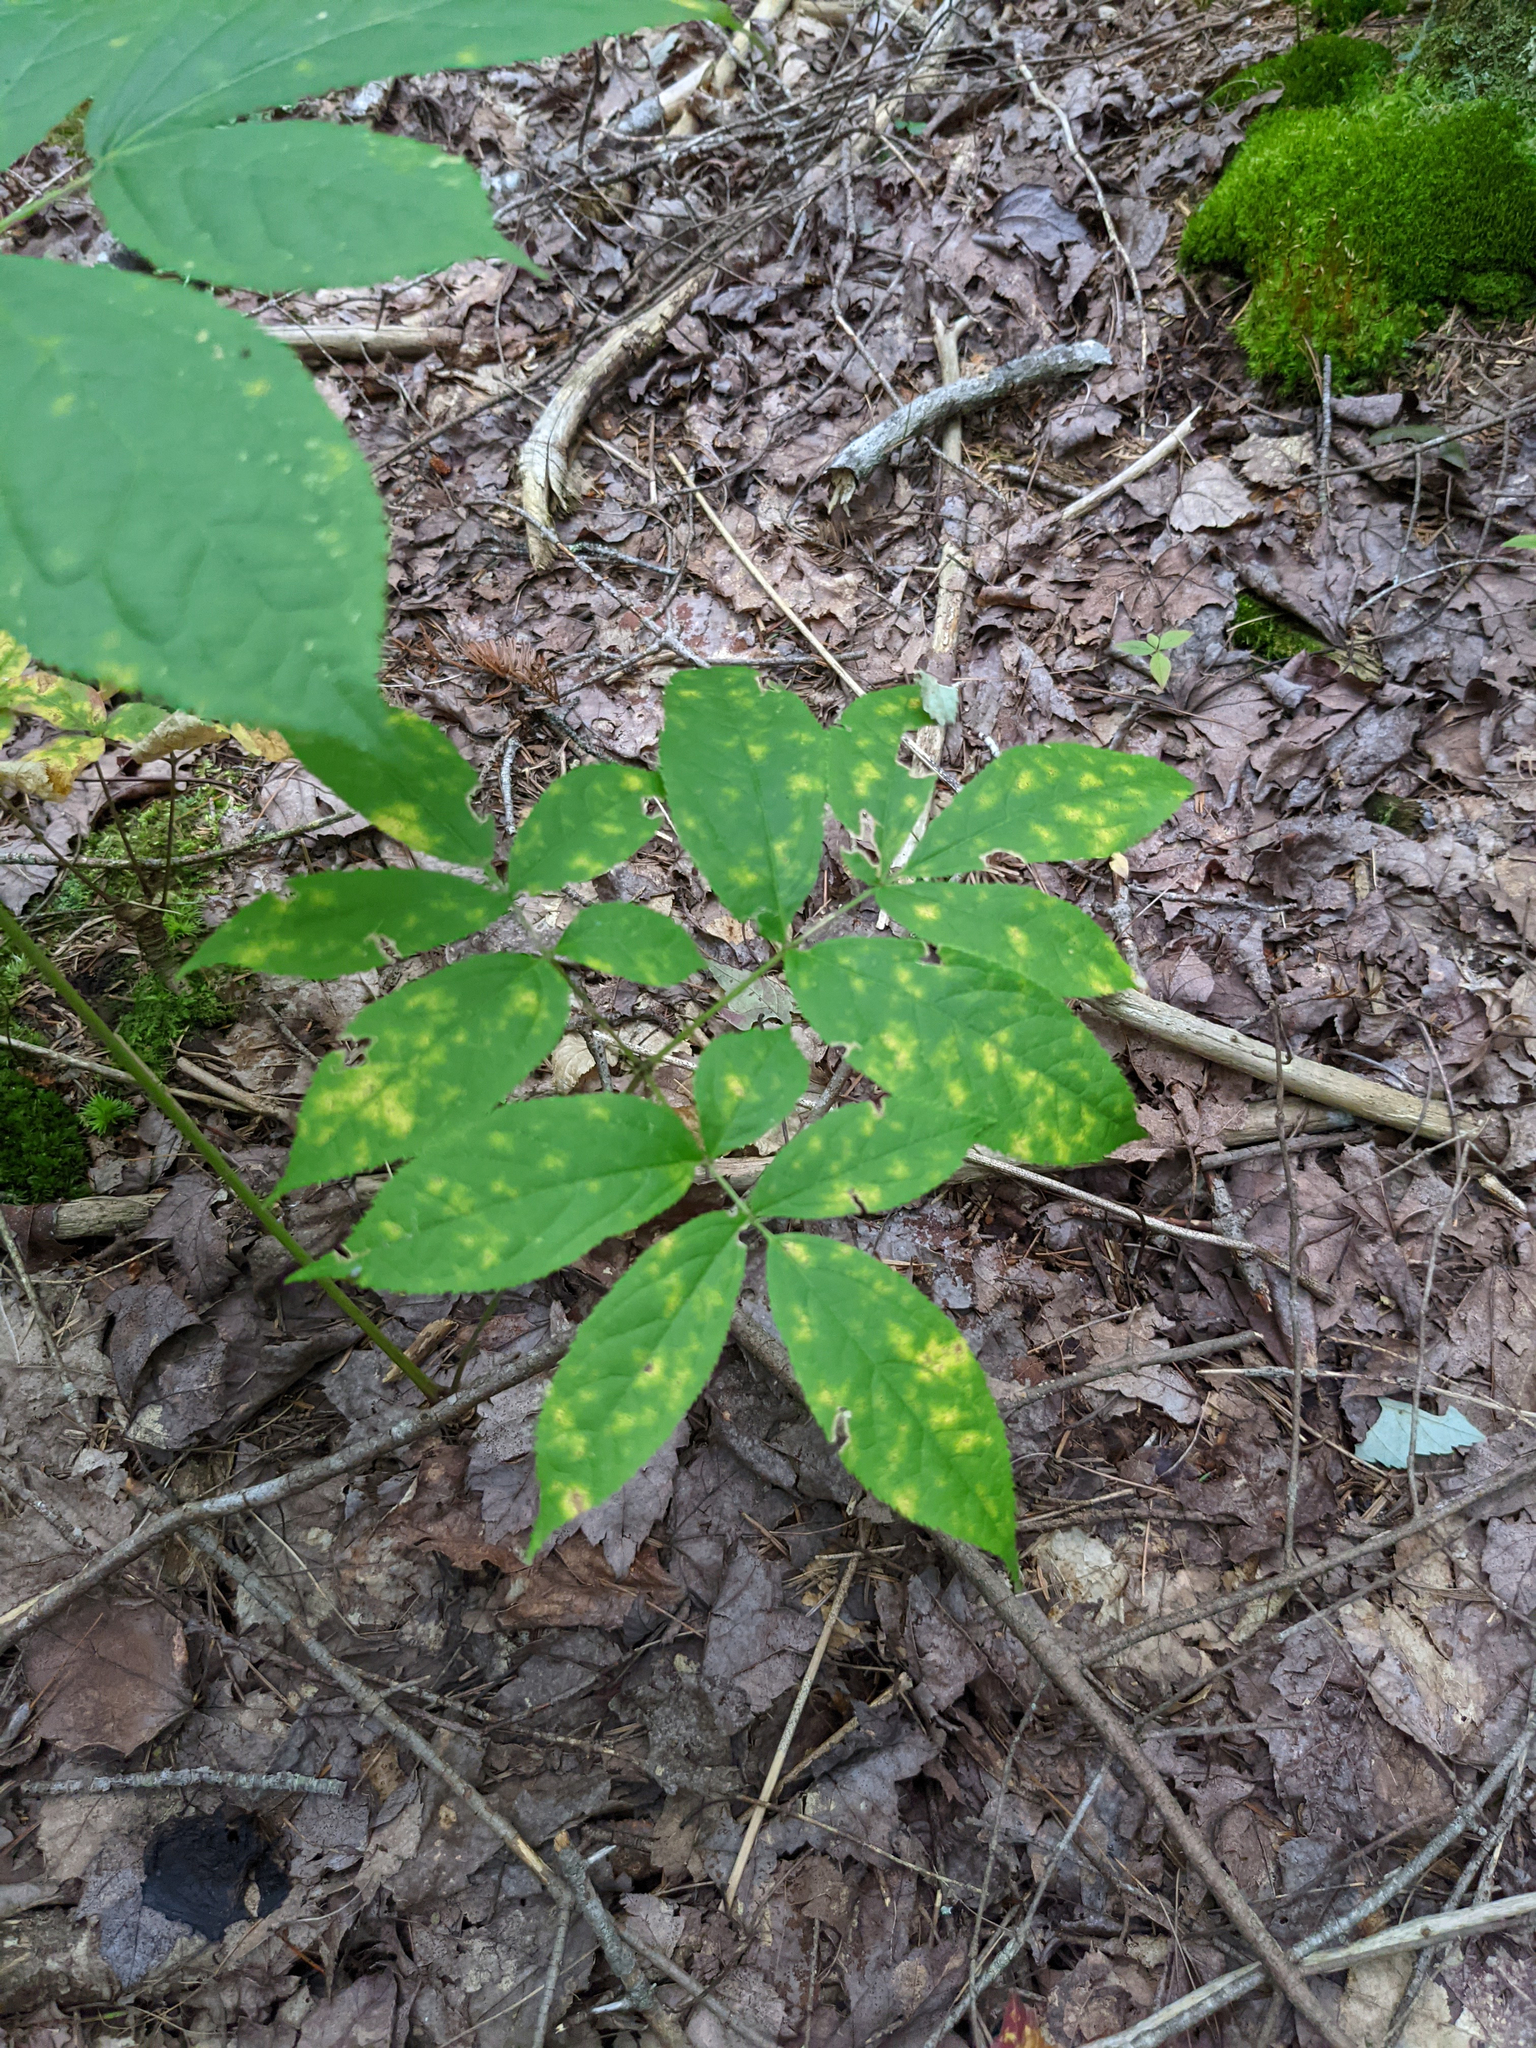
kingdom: Plantae
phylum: Tracheophyta
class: Magnoliopsida
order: Apiales
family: Araliaceae
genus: Aralia
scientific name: Aralia nudicaulis
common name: Wild sarsaparilla
